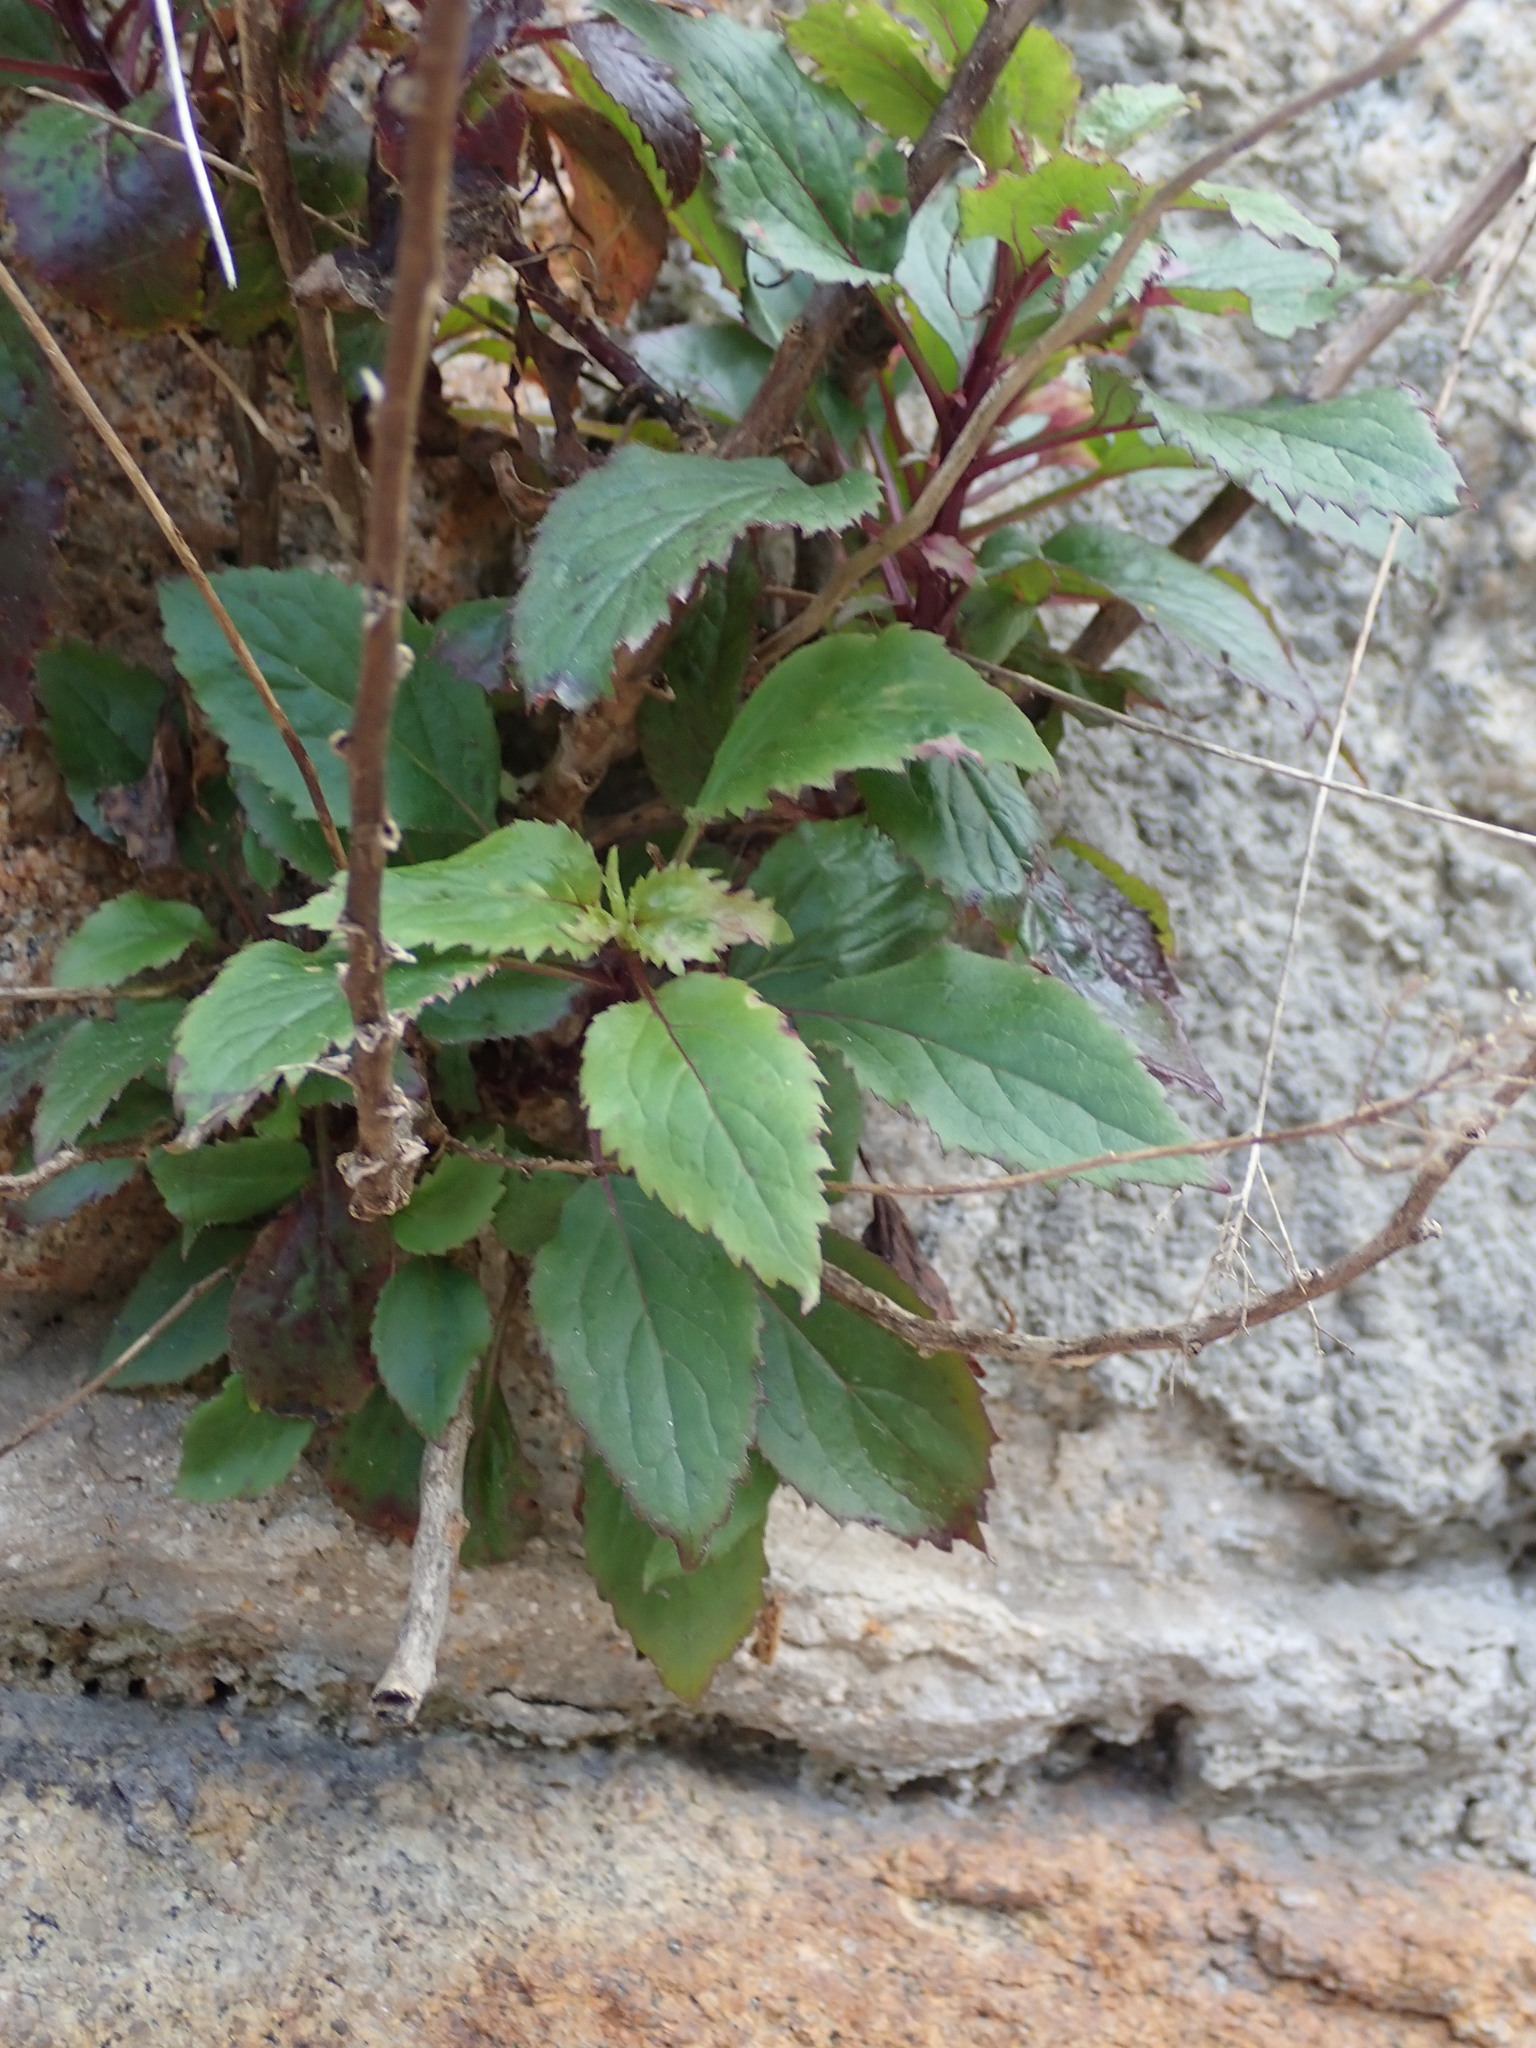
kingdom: Plantae
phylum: Tracheophyta
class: Magnoliopsida
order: Asterales
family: Campanulaceae
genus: Trachelium
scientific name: Trachelium caeruleum
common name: Throatwort
